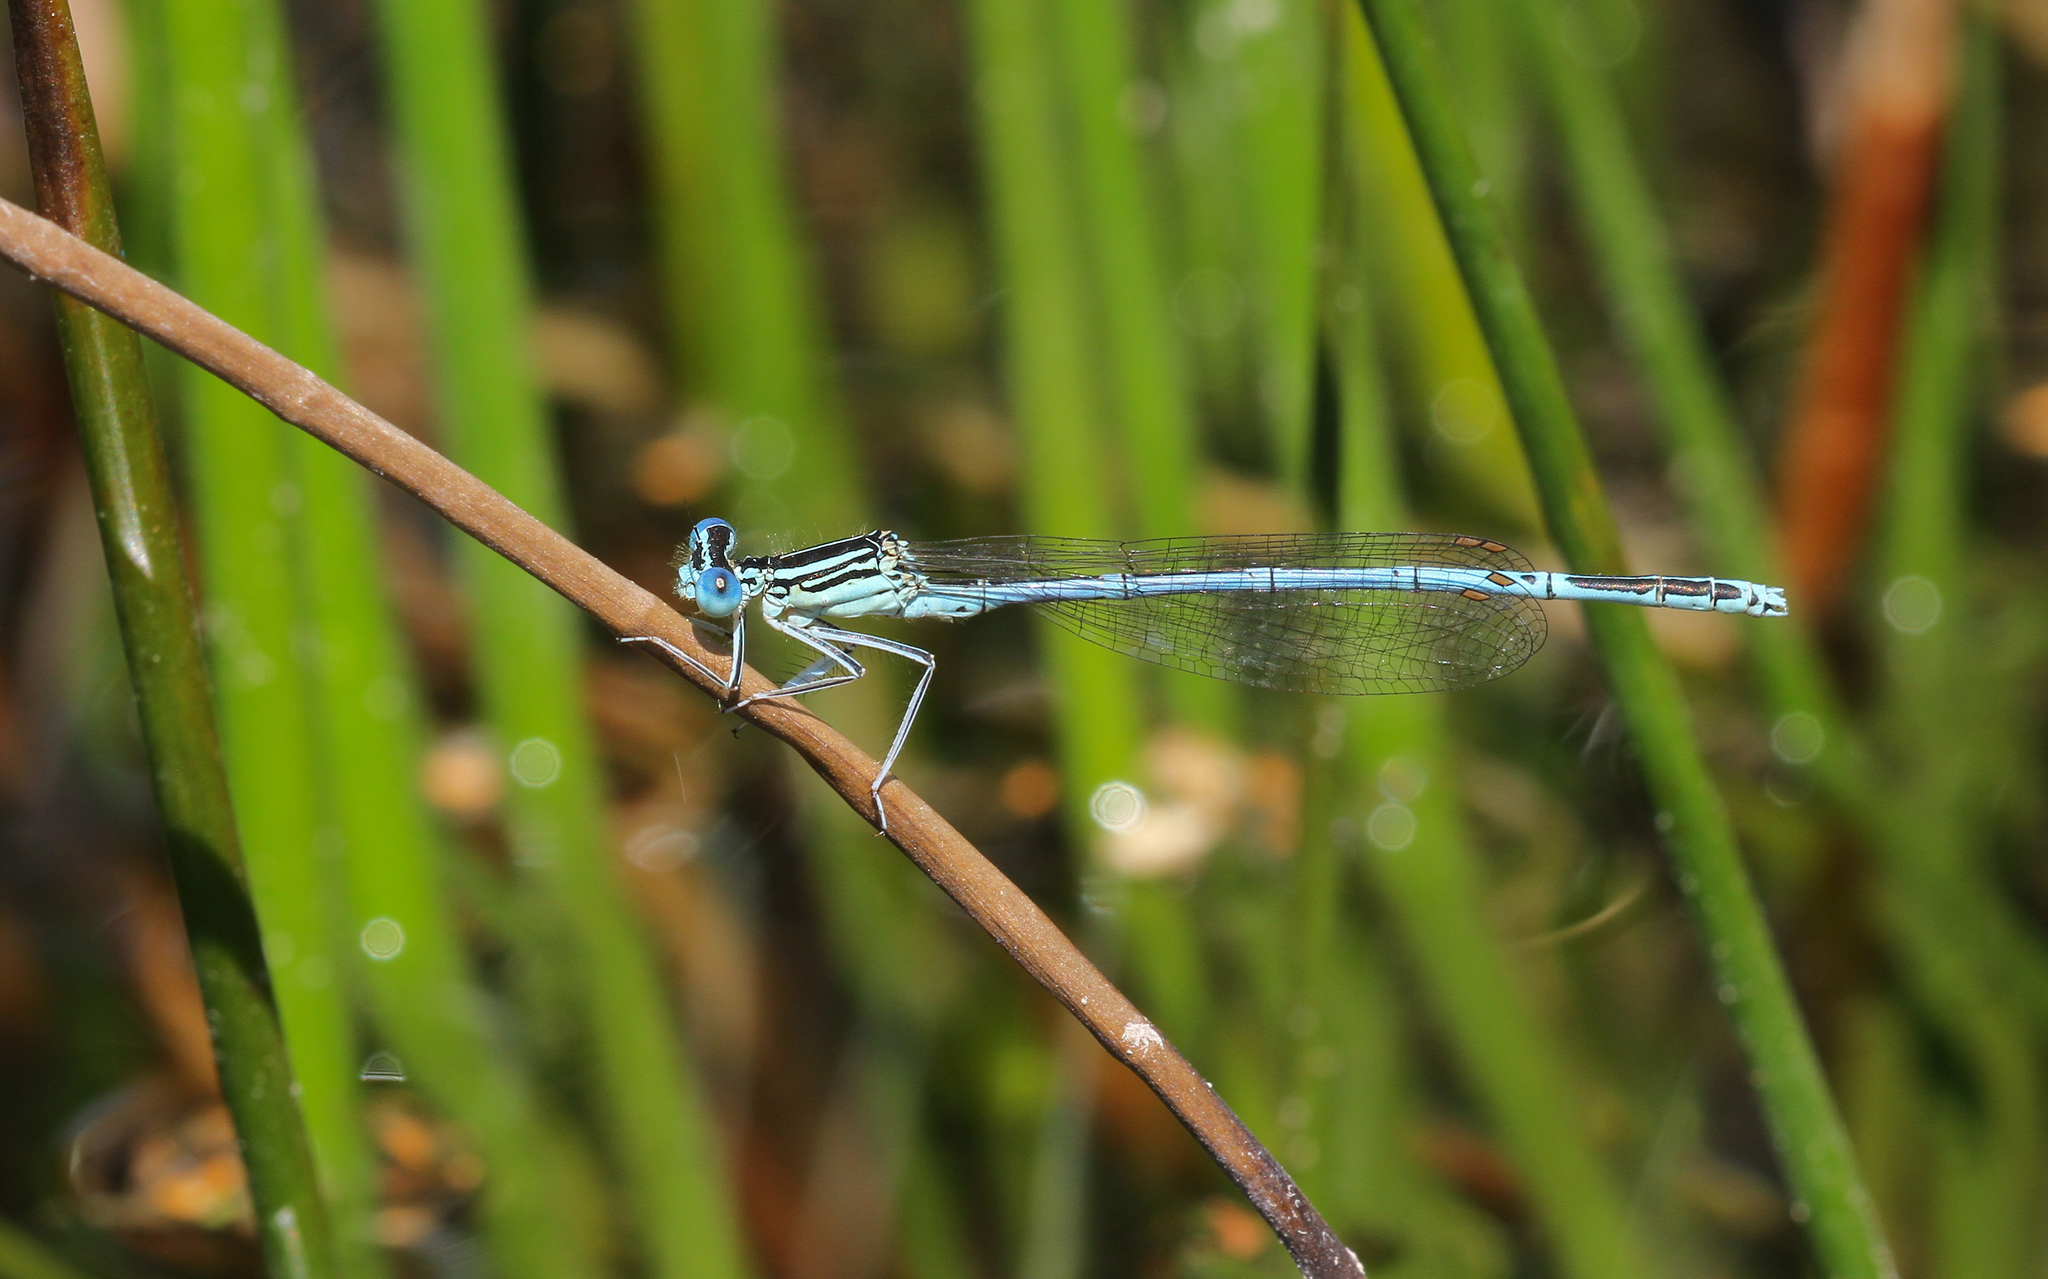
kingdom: Animalia
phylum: Arthropoda
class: Insecta
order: Odonata
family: Platycnemididae
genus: Platycnemis
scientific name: Platycnemis pennipes
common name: White-legged damselfly
